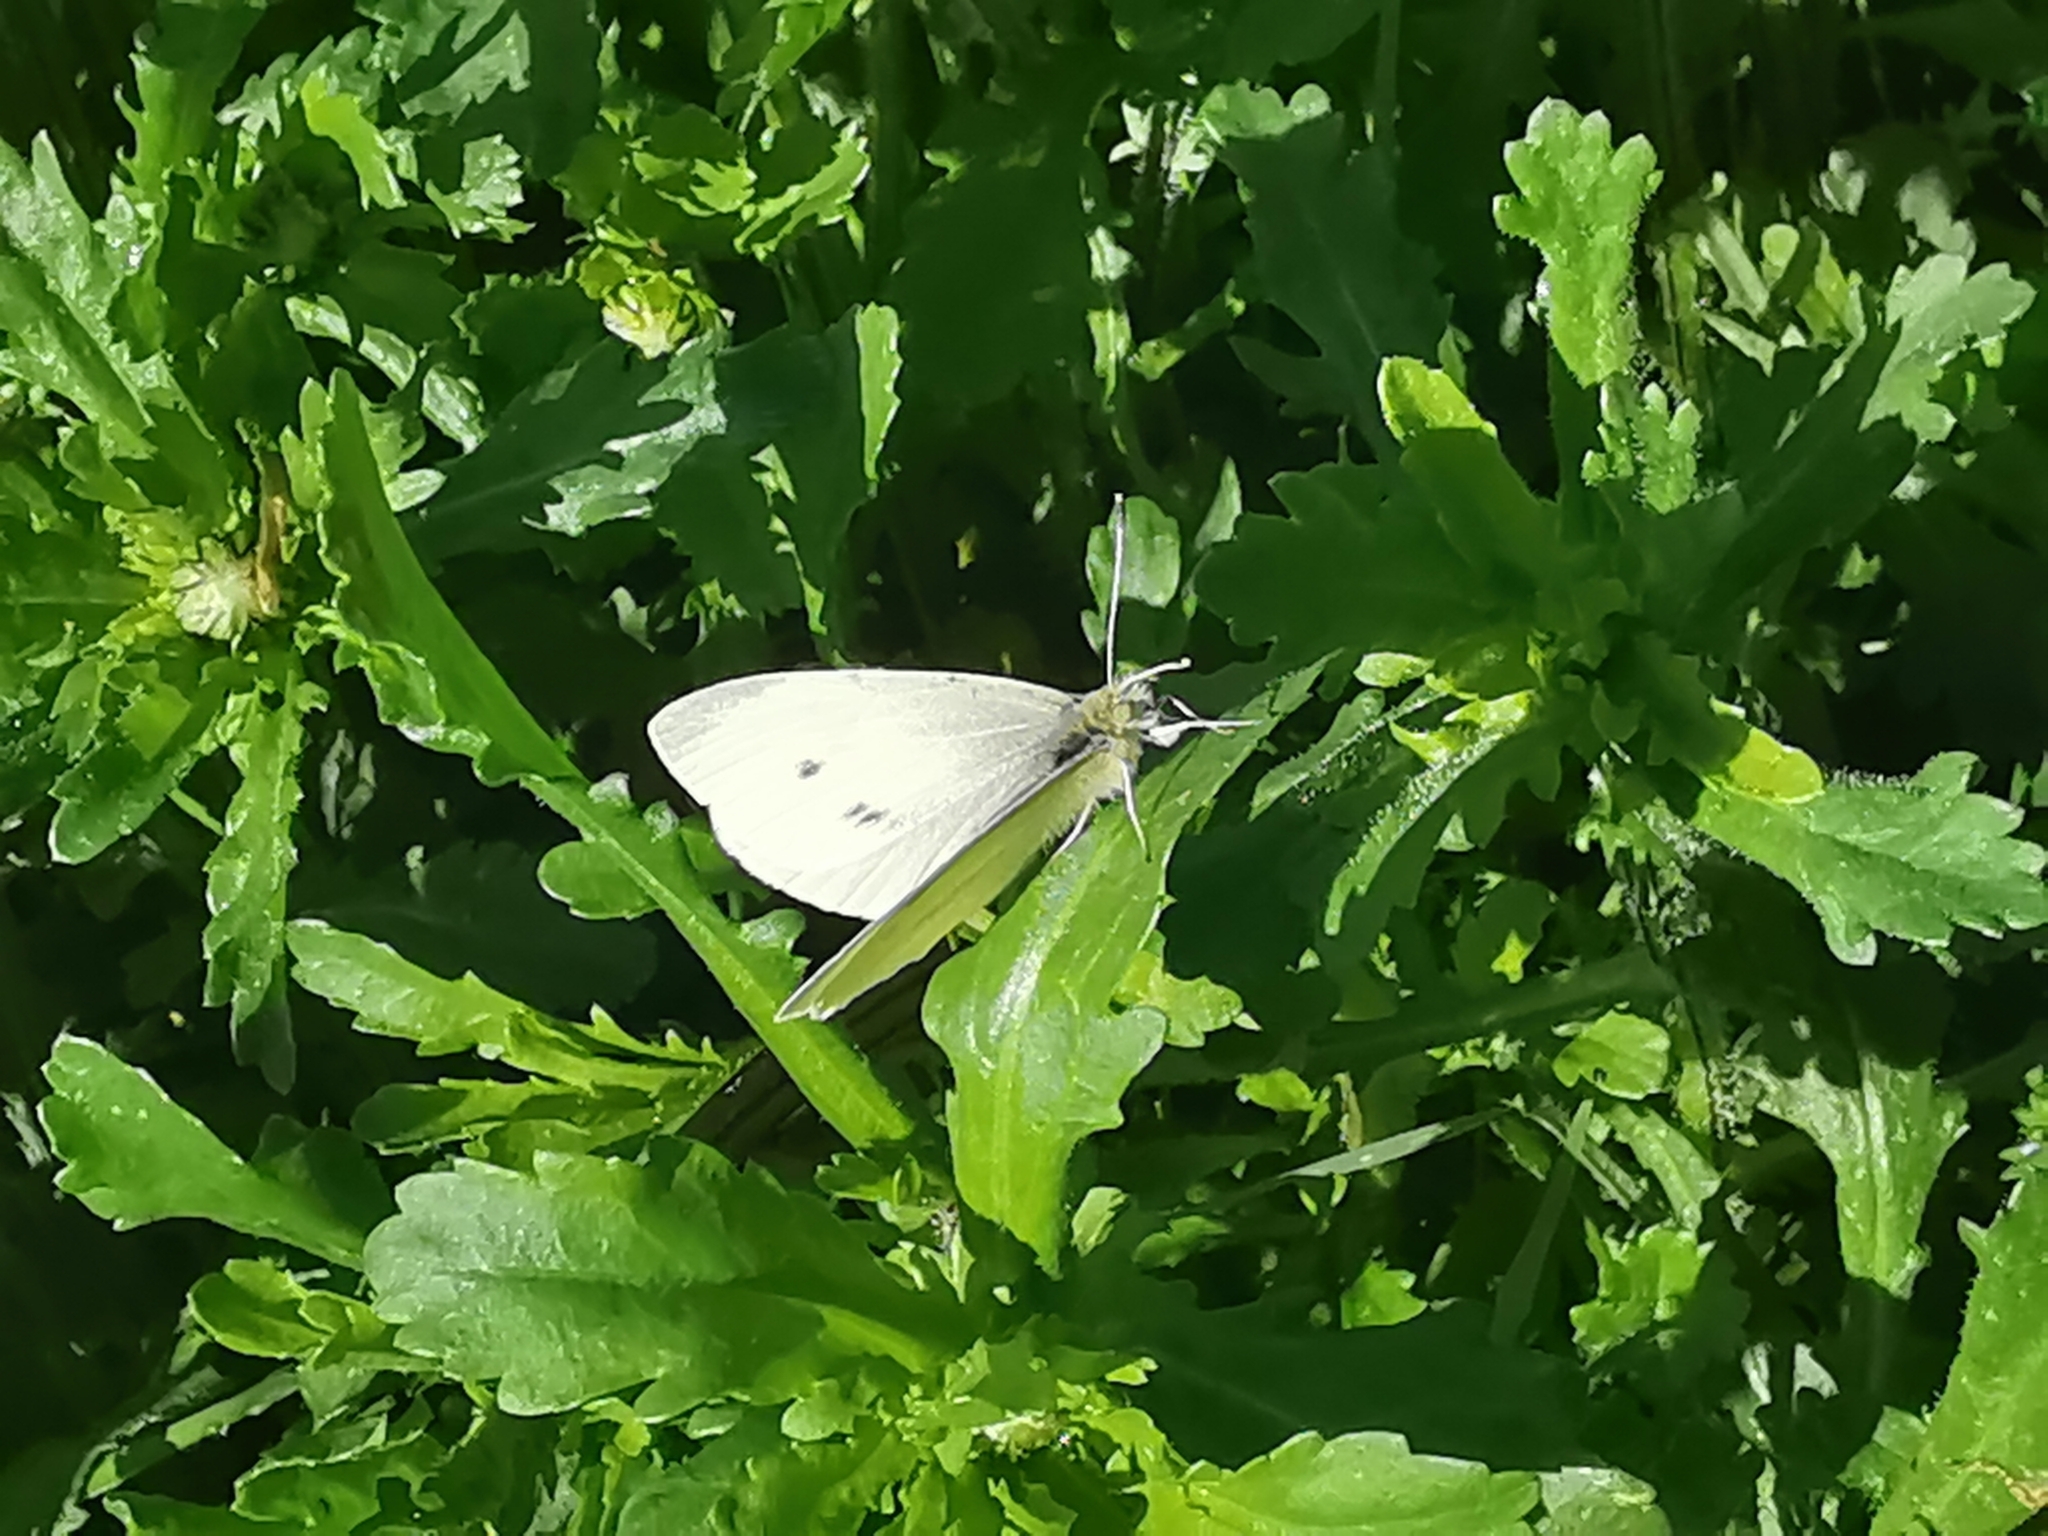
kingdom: Animalia
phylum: Arthropoda
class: Insecta
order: Lepidoptera
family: Pieridae
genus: Pieris
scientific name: Pieris rapae
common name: Small white
